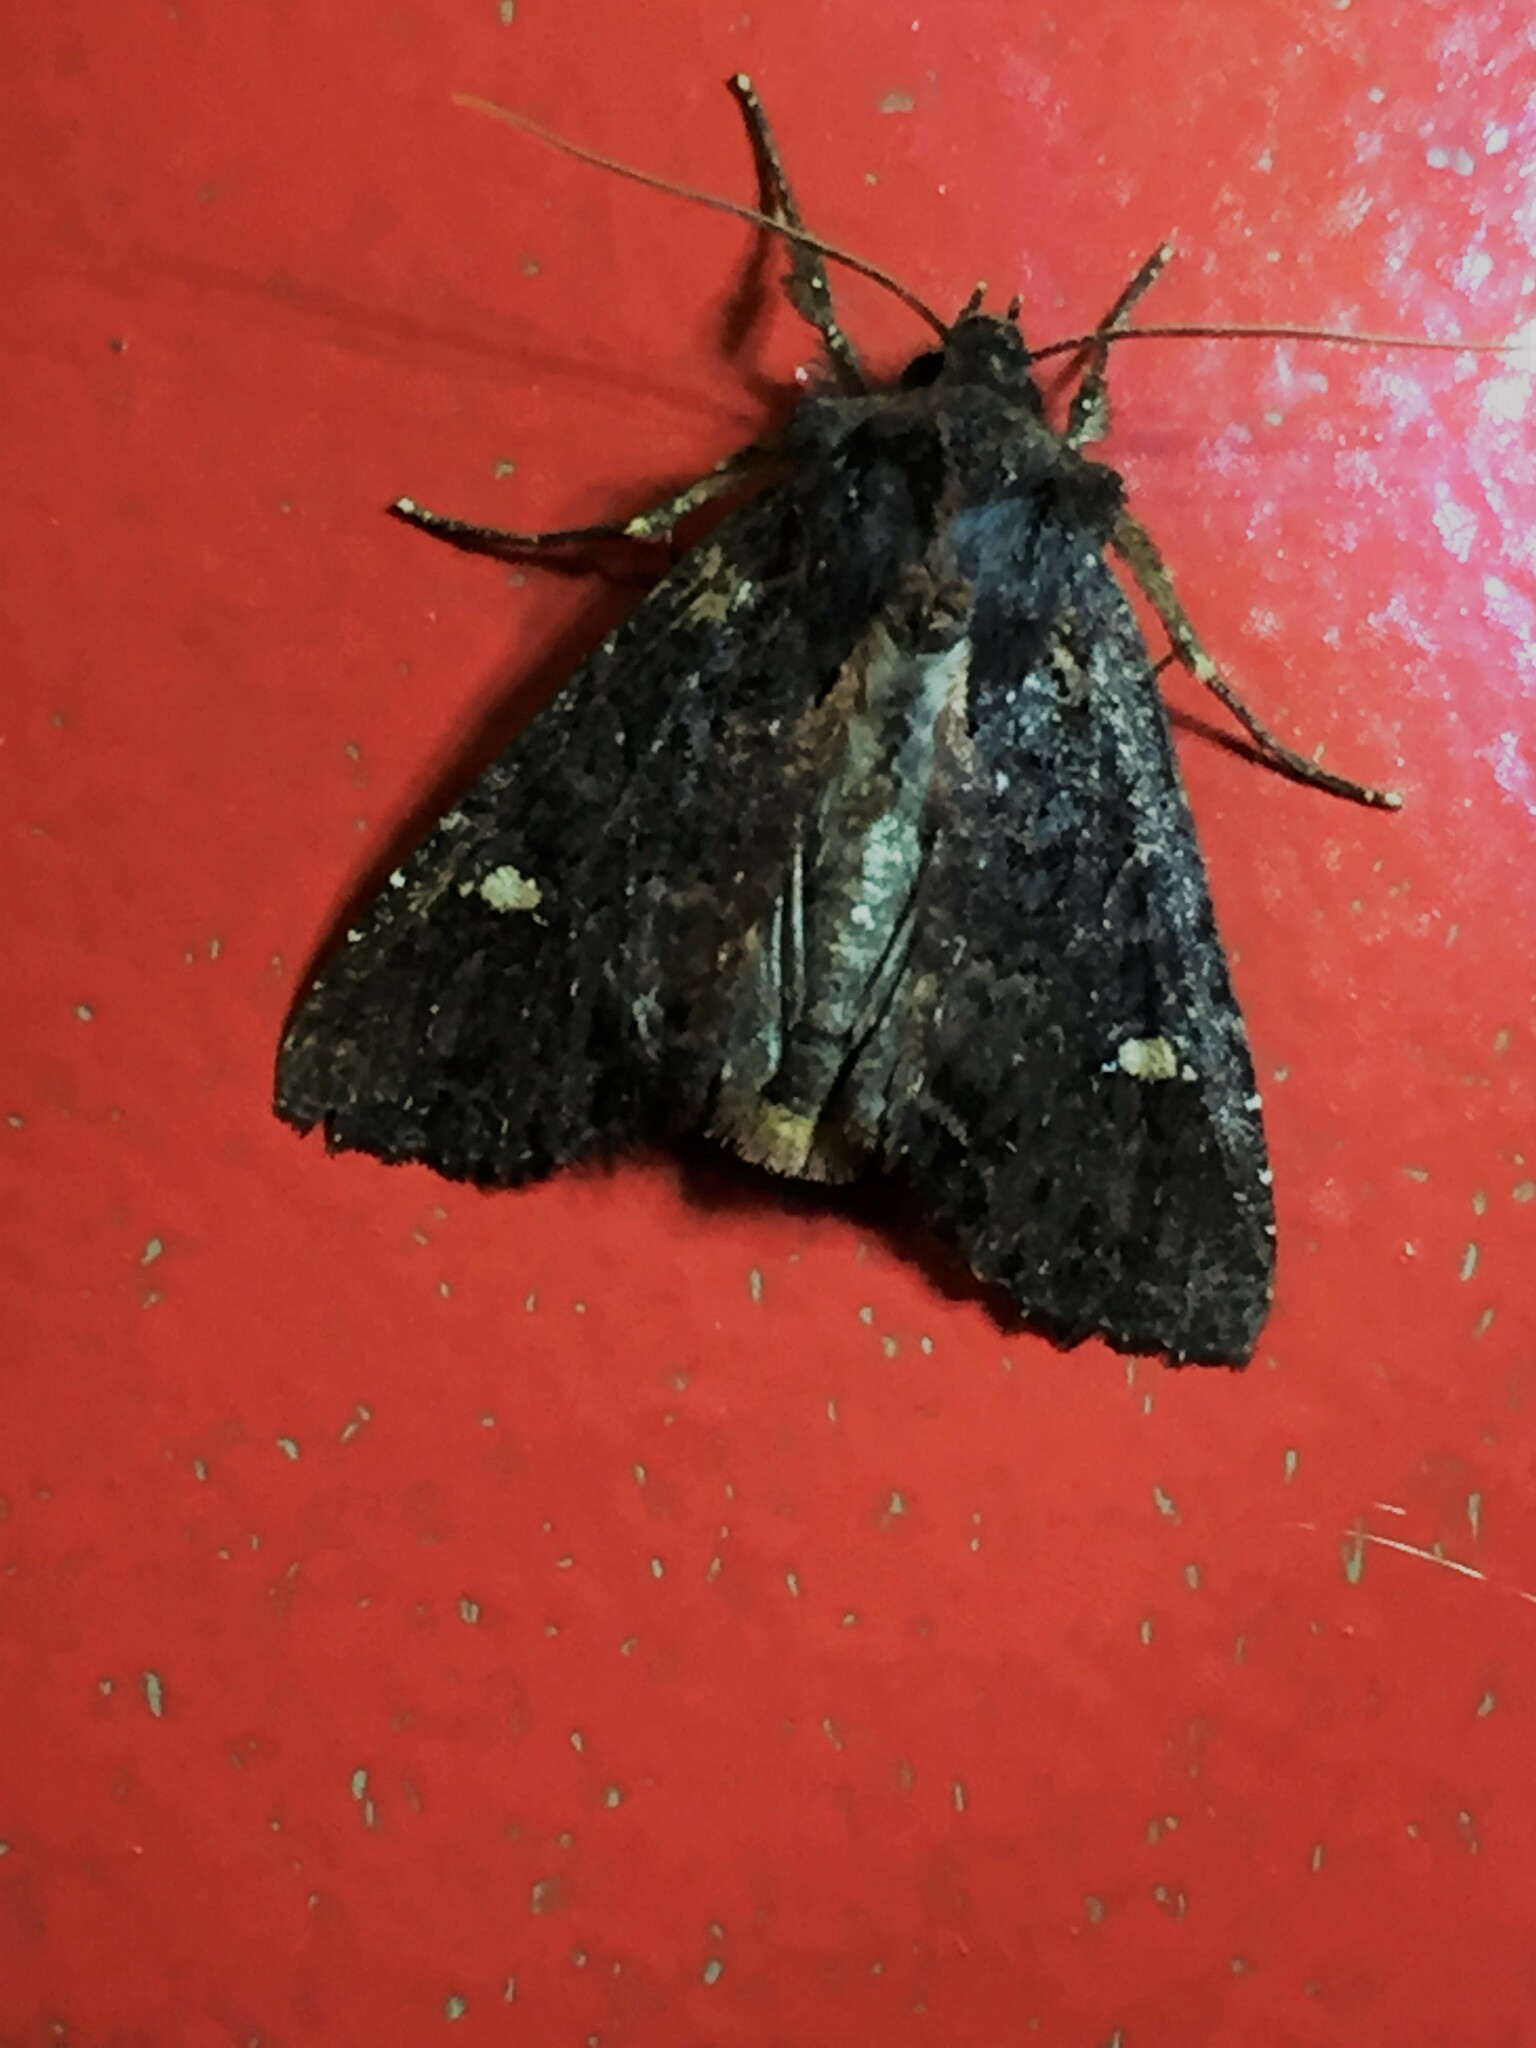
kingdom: Animalia
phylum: Arthropoda
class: Insecta
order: Lepidoptera
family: Noctuidae
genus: Meterana
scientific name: Meterana vitiosa
